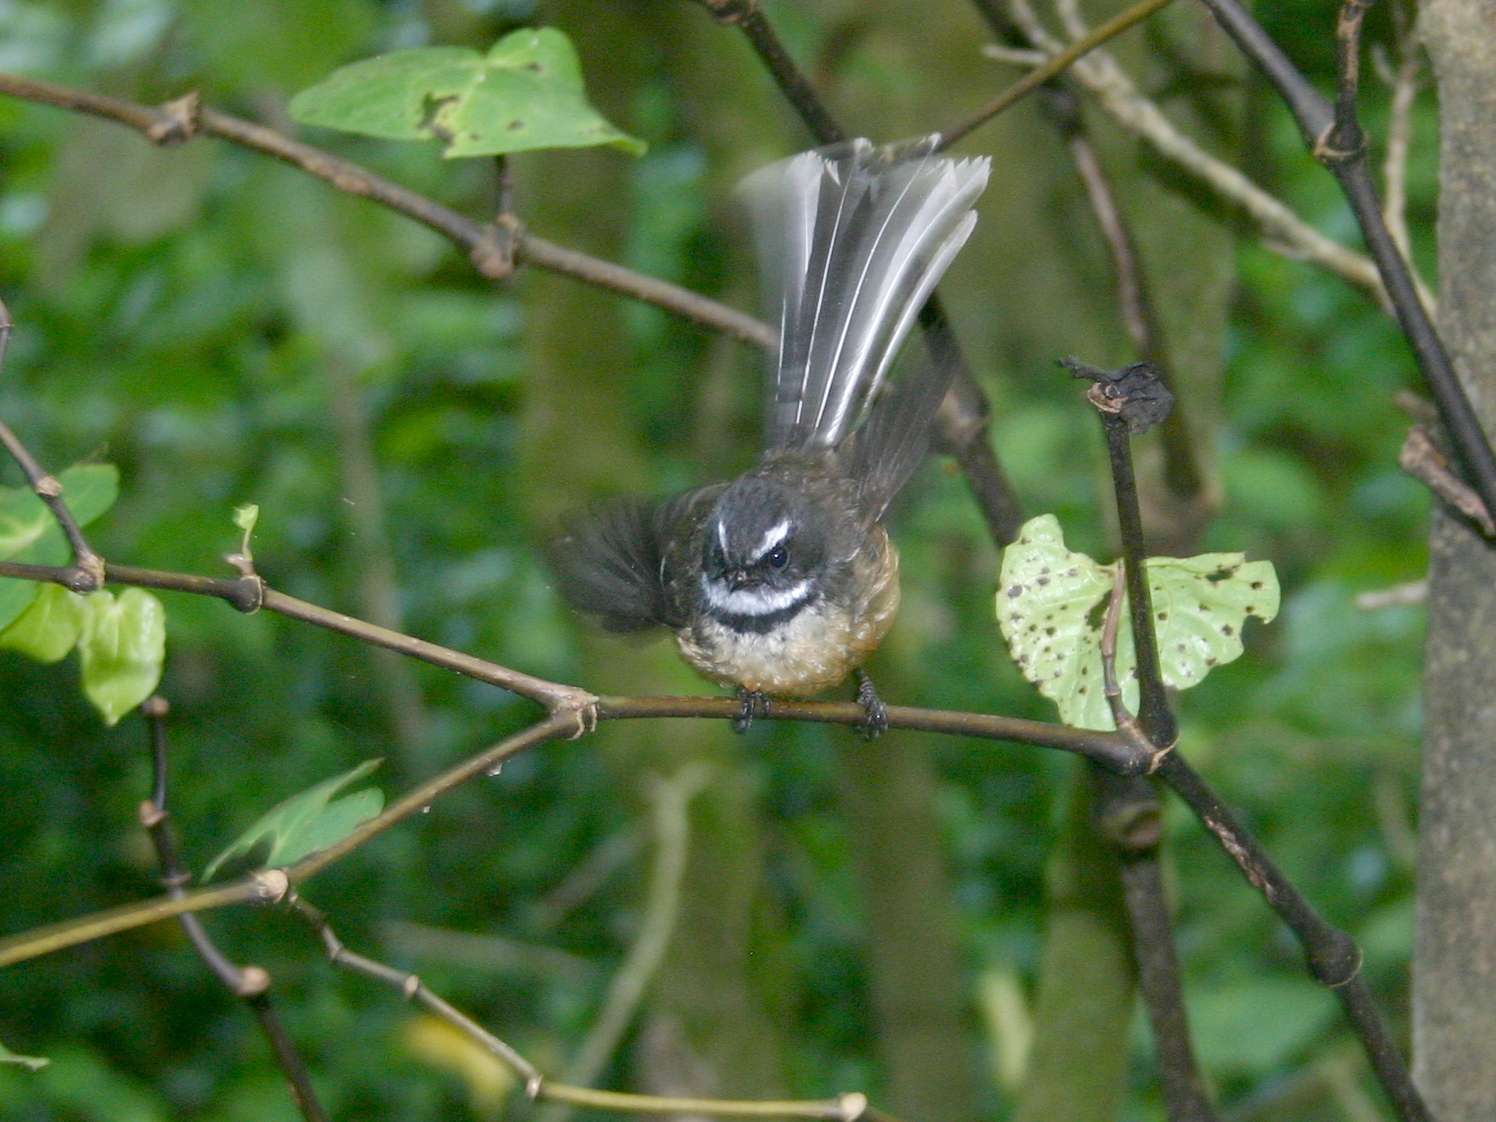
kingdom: Animalia
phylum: Chordata
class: Aves
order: Passeriformes
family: Rhipiduridae
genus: Rhipidura
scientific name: Rhipidura fuliginosa
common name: New zealand fantail
